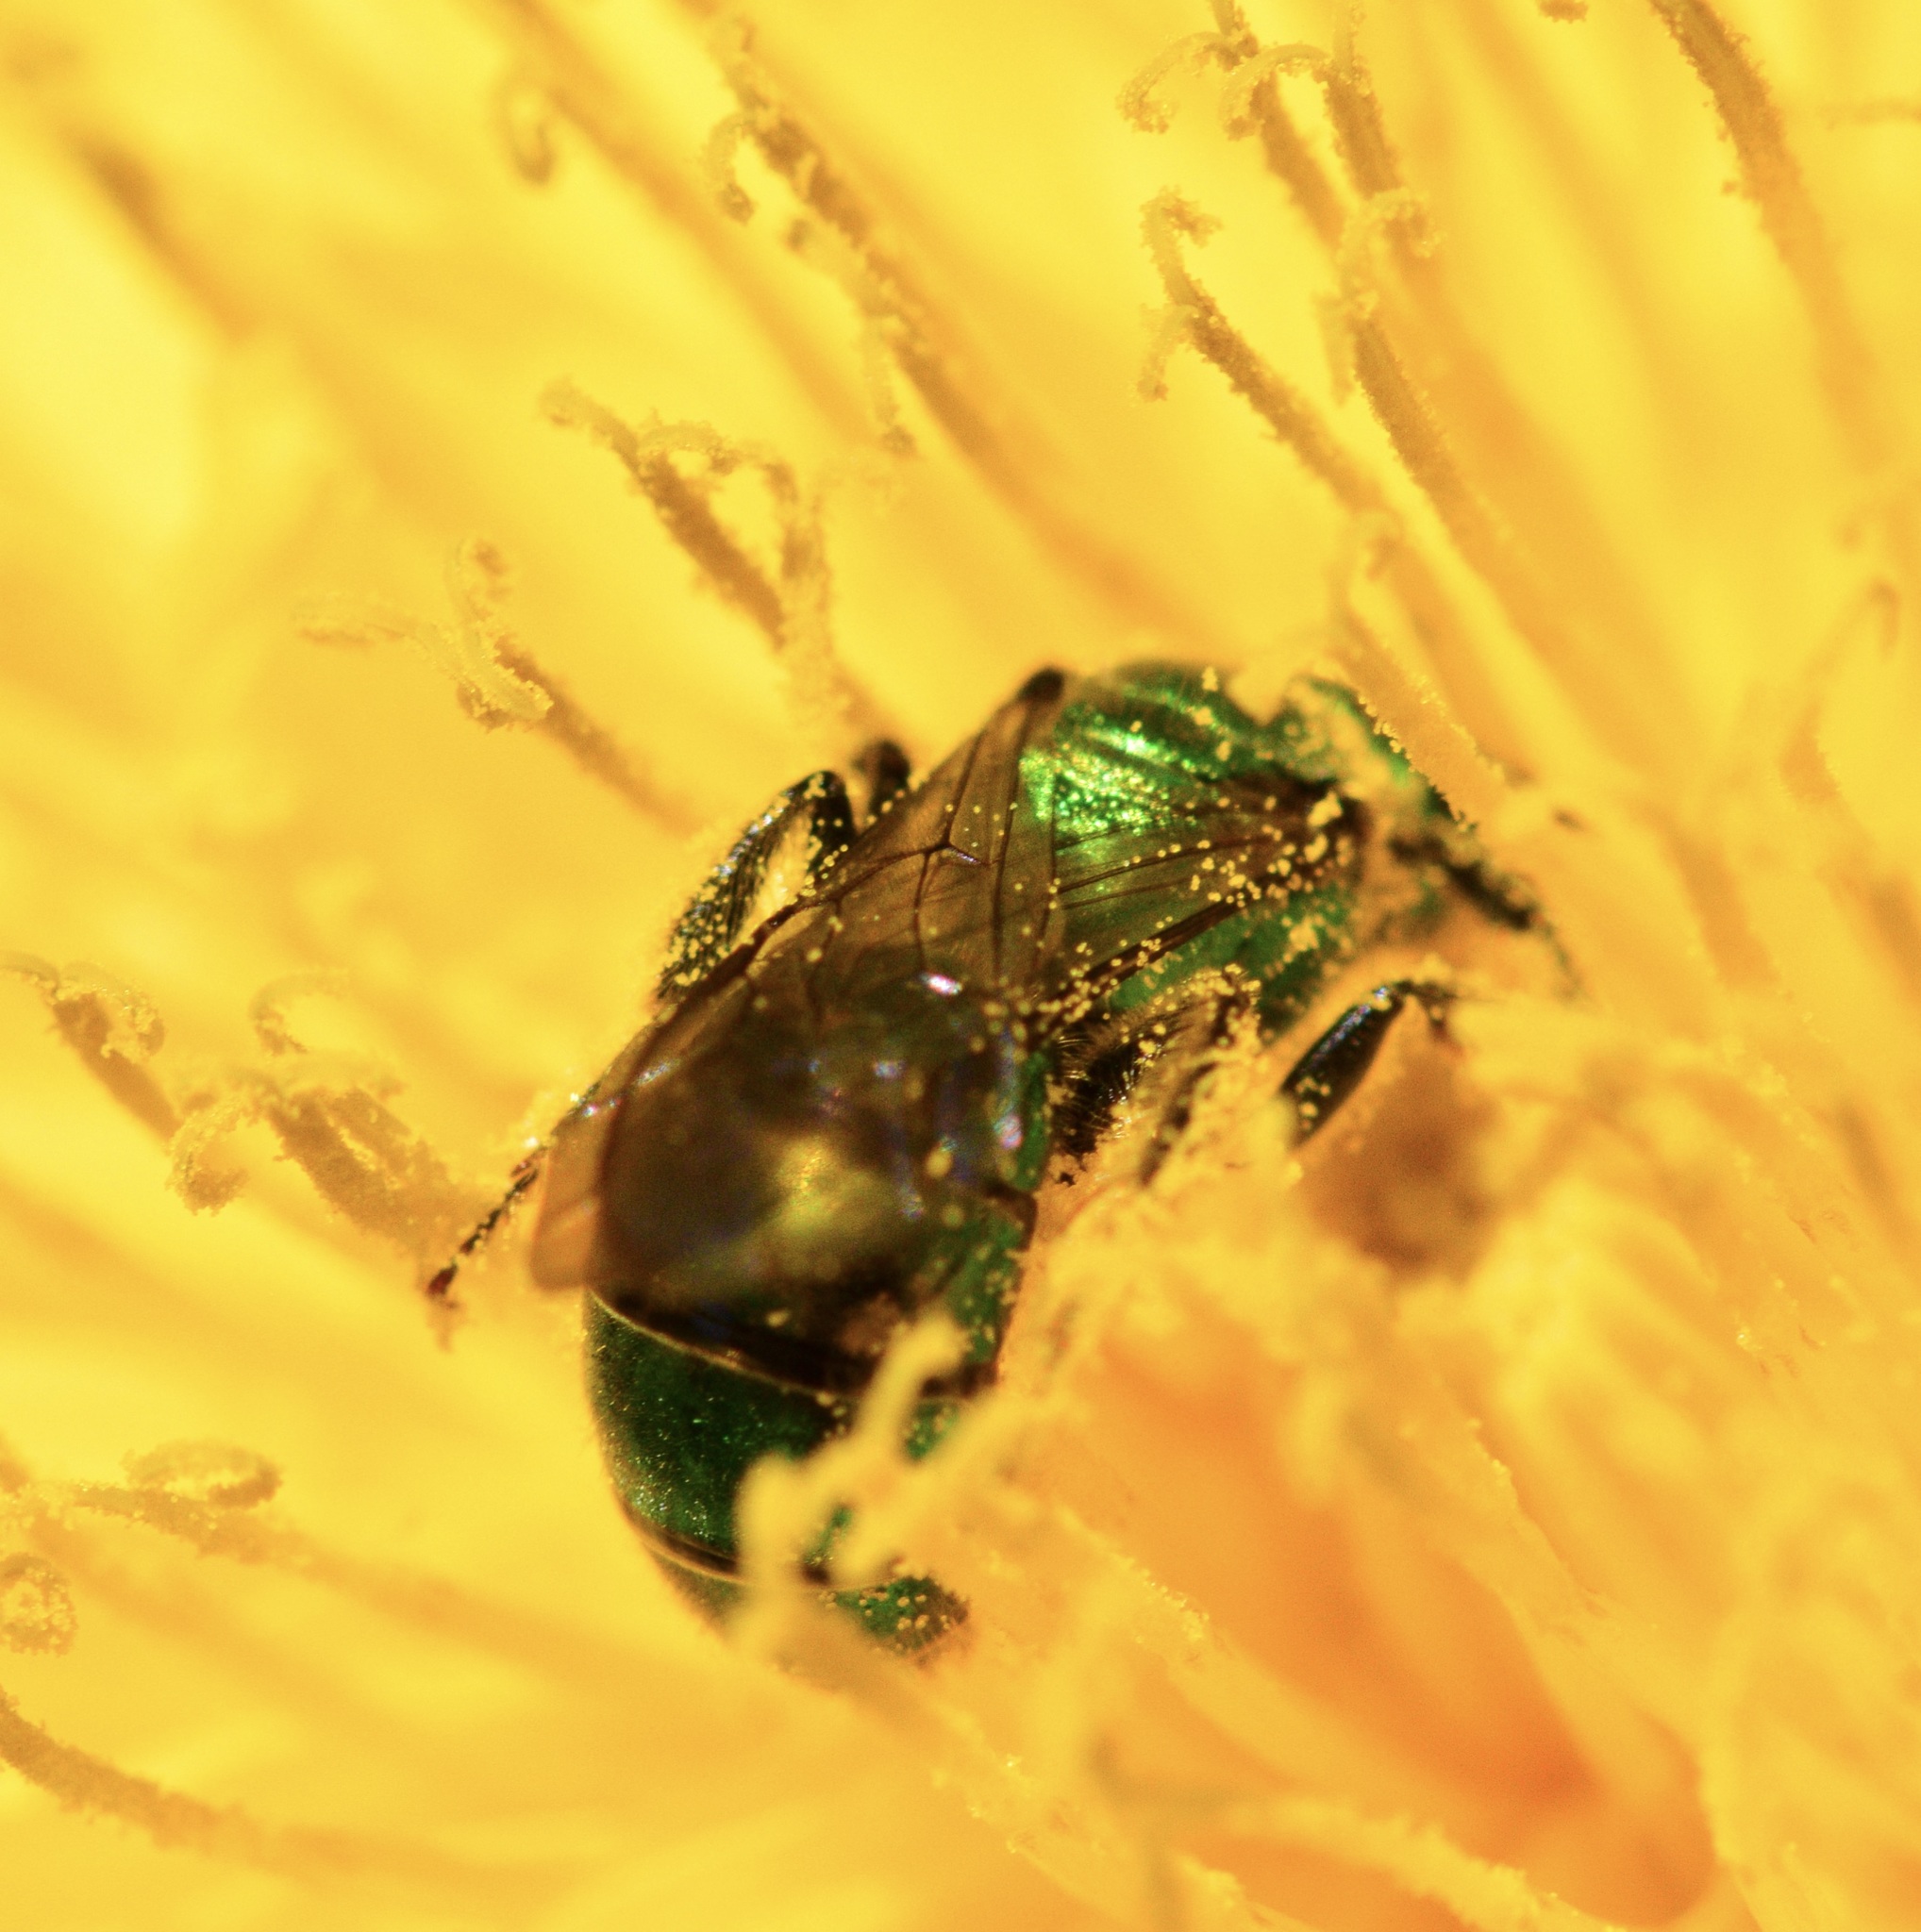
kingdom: Animalia
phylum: Arthropoda
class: Insecta
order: Hymenoptera
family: Halictidae
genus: Augochlora
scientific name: Augochlora pura
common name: Pure green sweat bee
